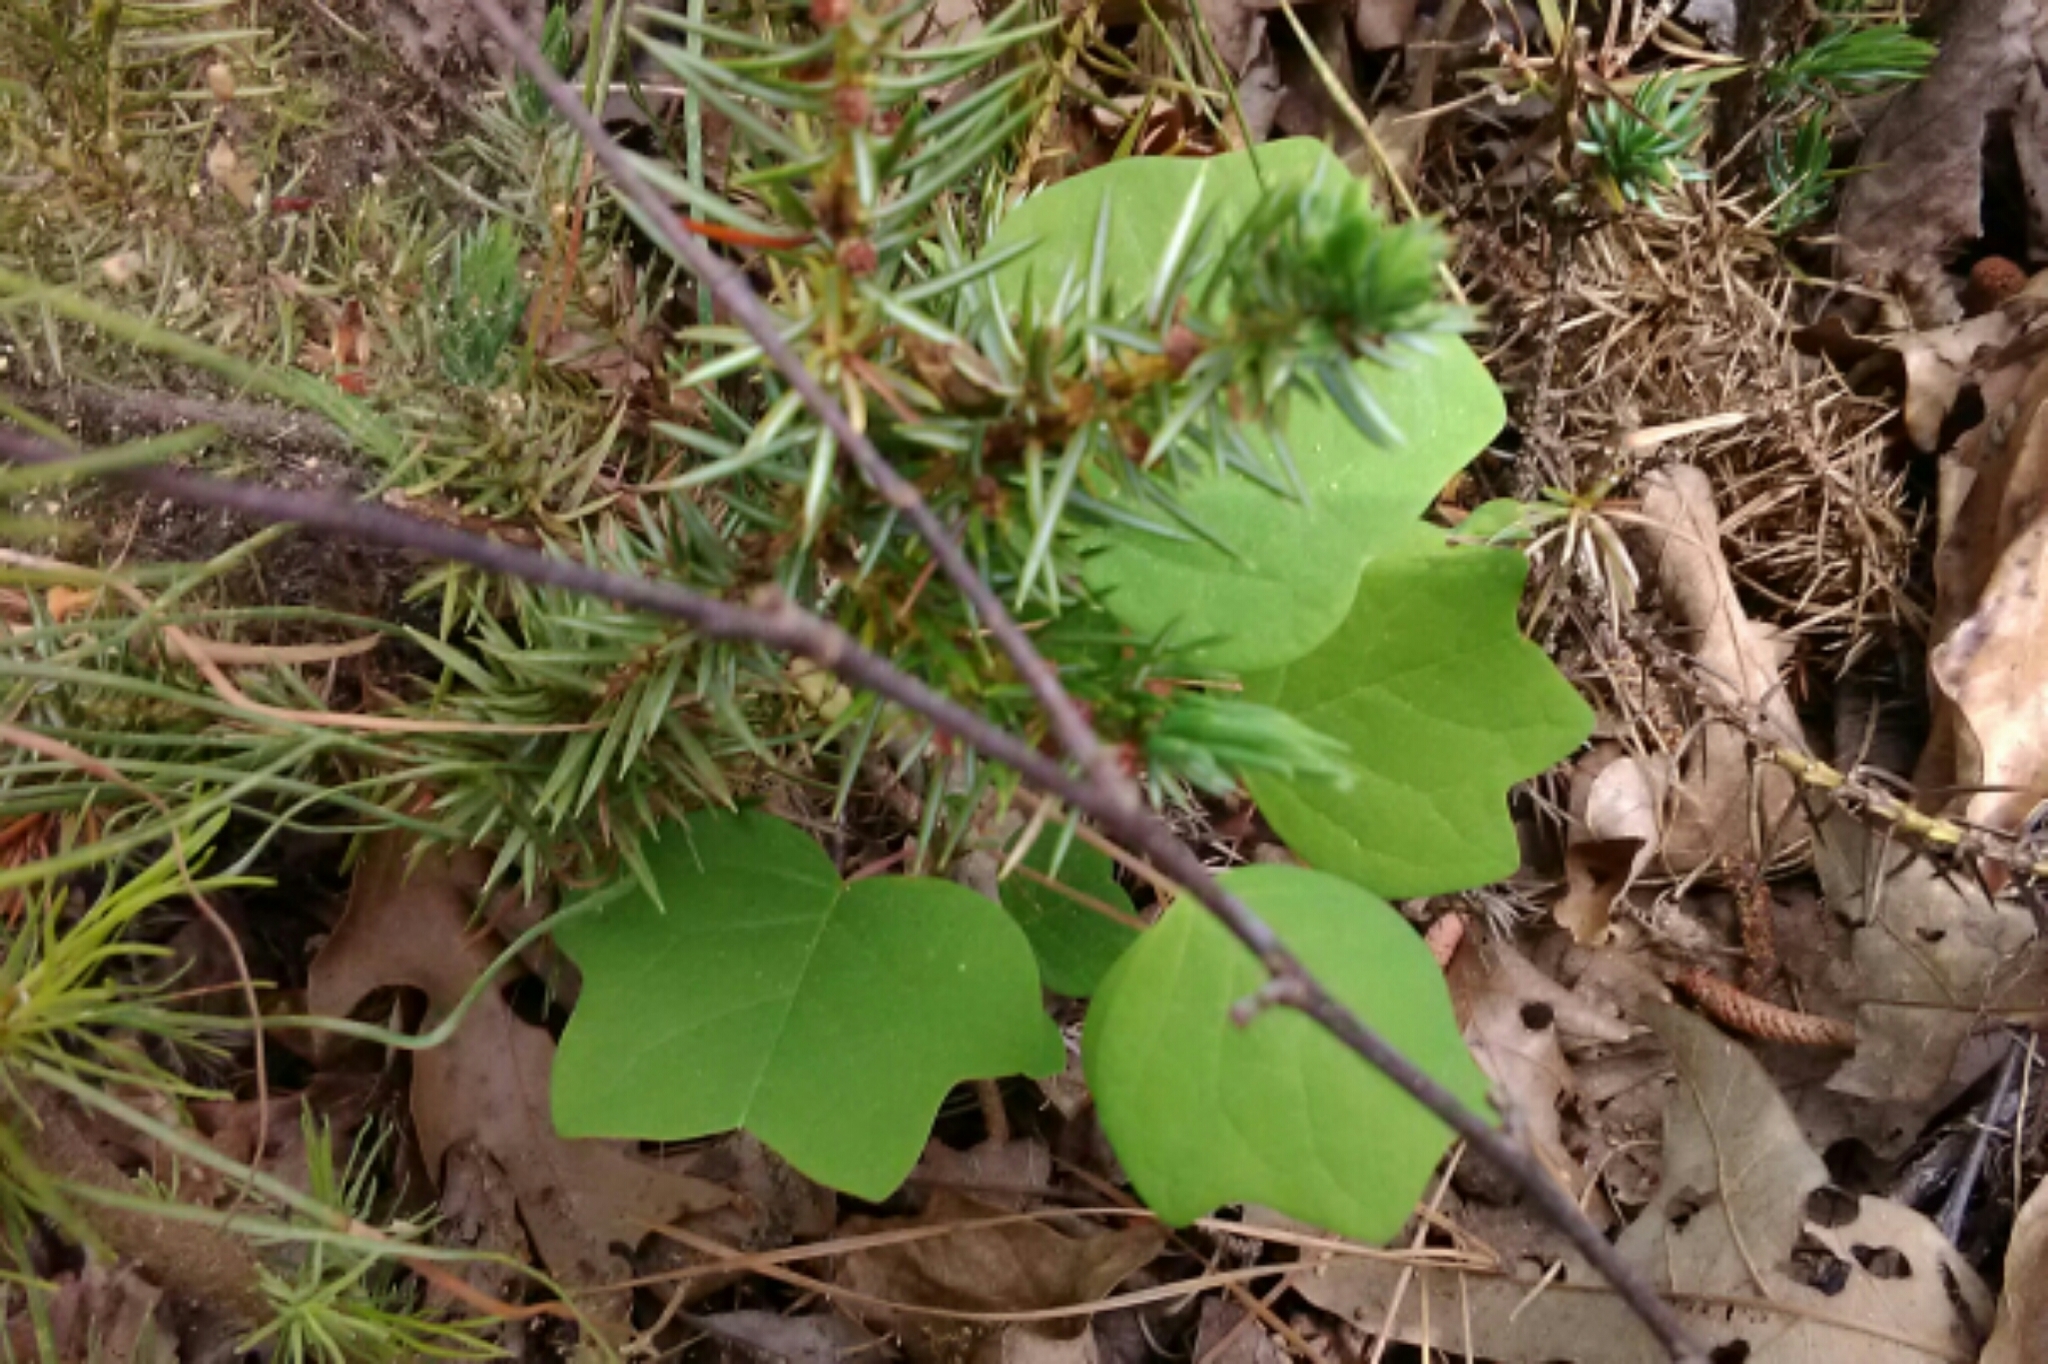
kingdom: Plantae
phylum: Tracheophyta
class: Magnoliopsida
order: Magnoliales
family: Magnoliaceae
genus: Liriodendron
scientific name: Liriodendron tulipifera
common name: Tulip tree
